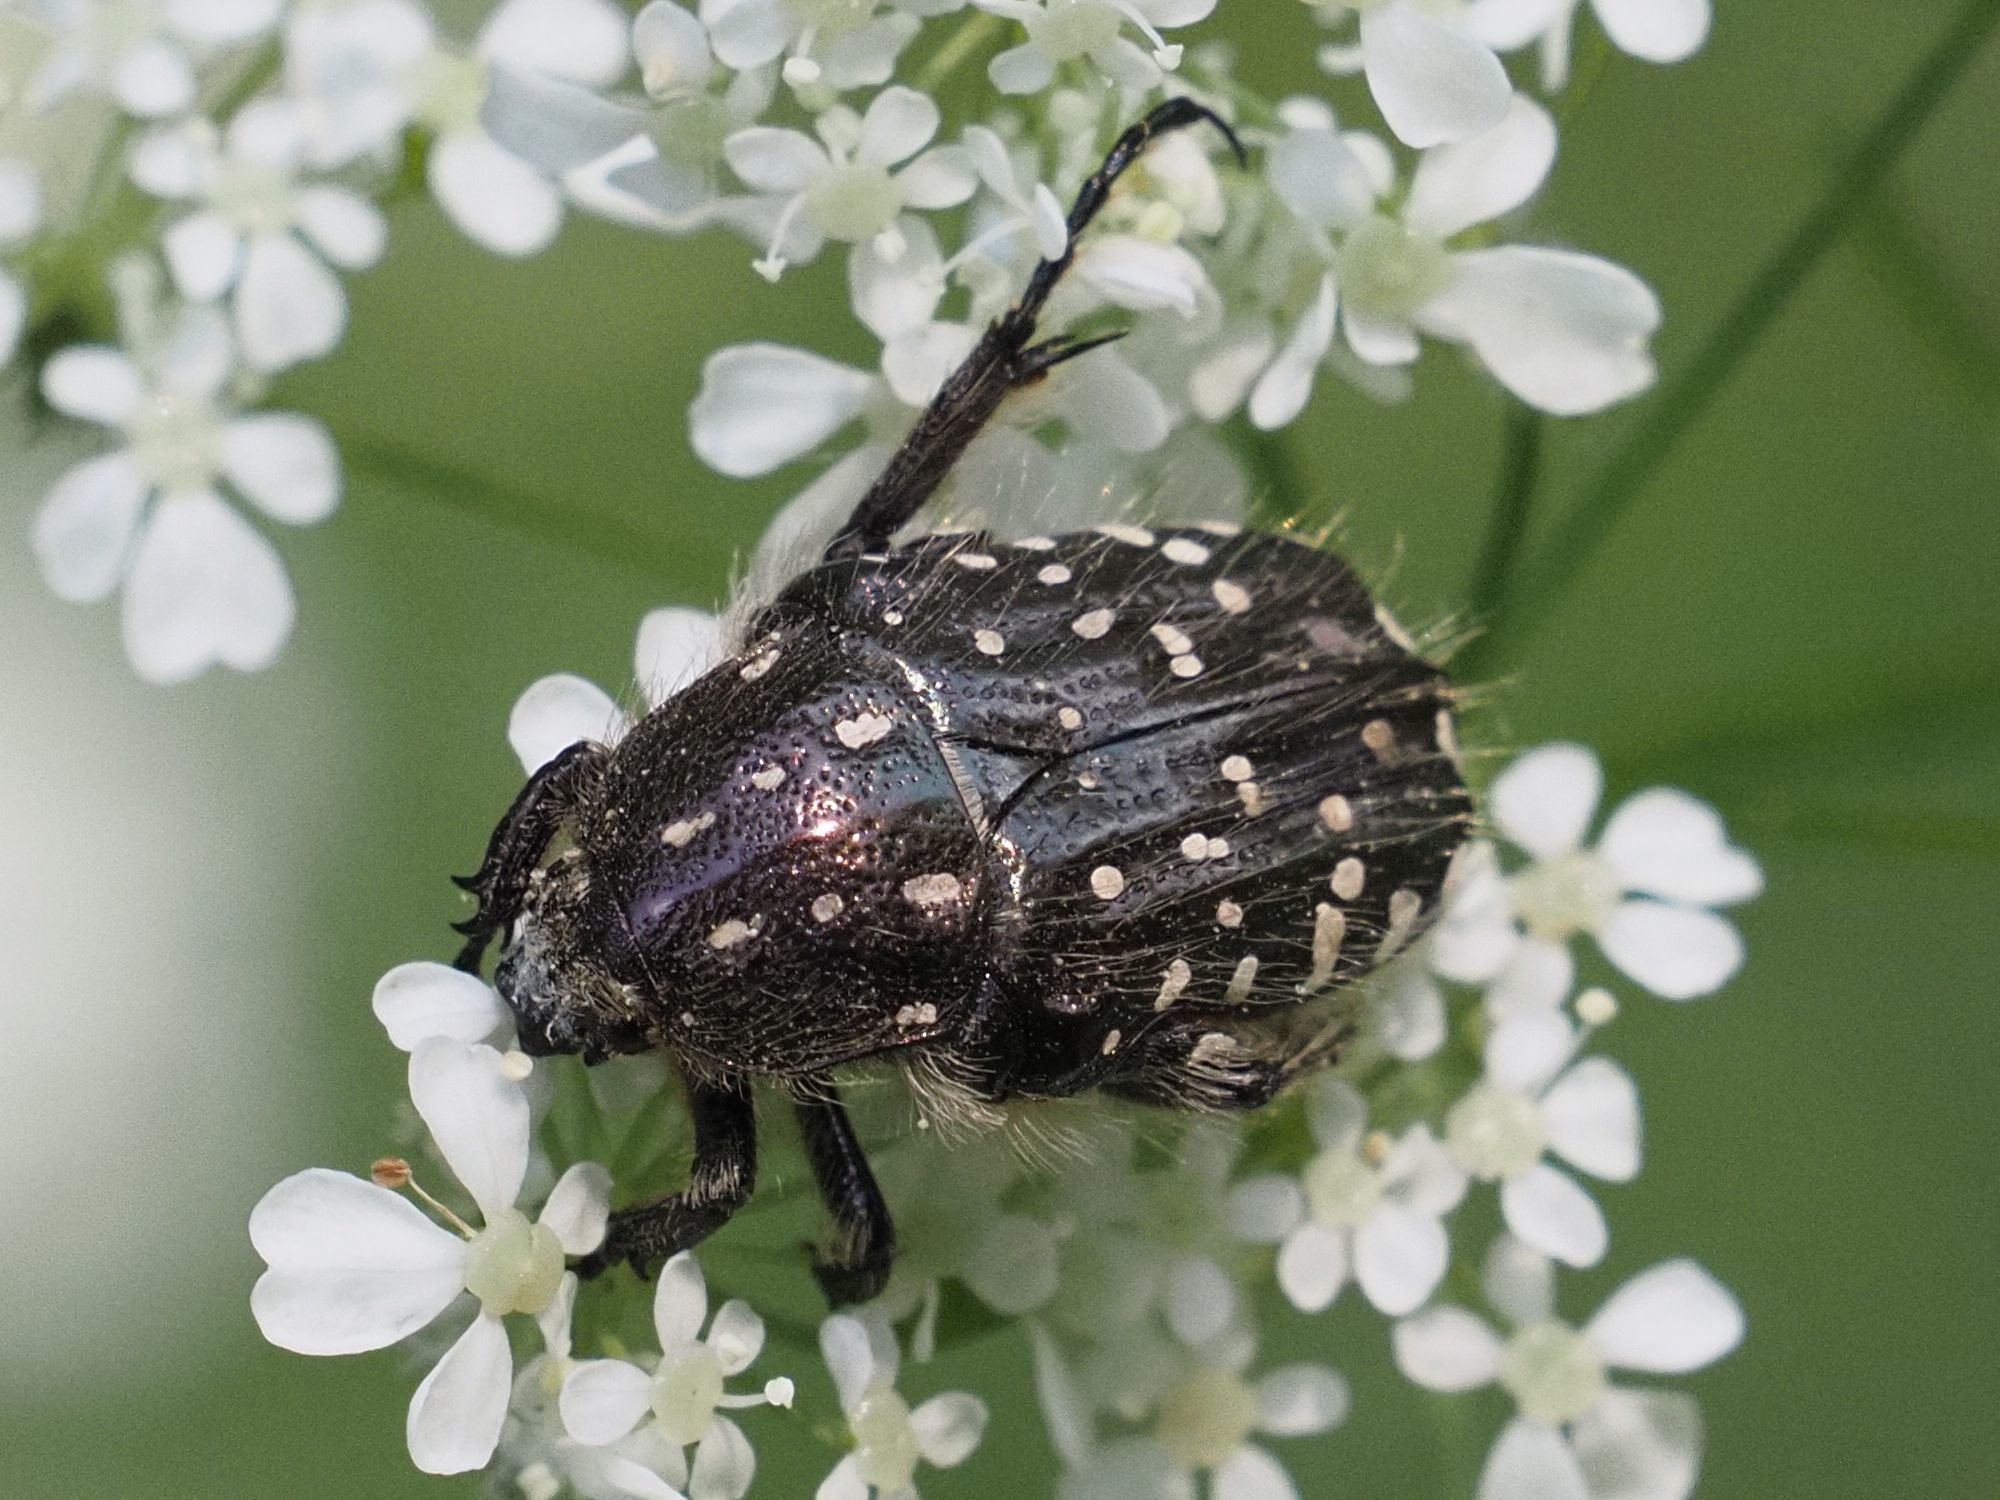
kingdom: Animalia
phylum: Arthropoda
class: Insecta
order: Coleoptera
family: Scarabaeidae
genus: Oxythyrea
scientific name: Oxythyrea funesta
